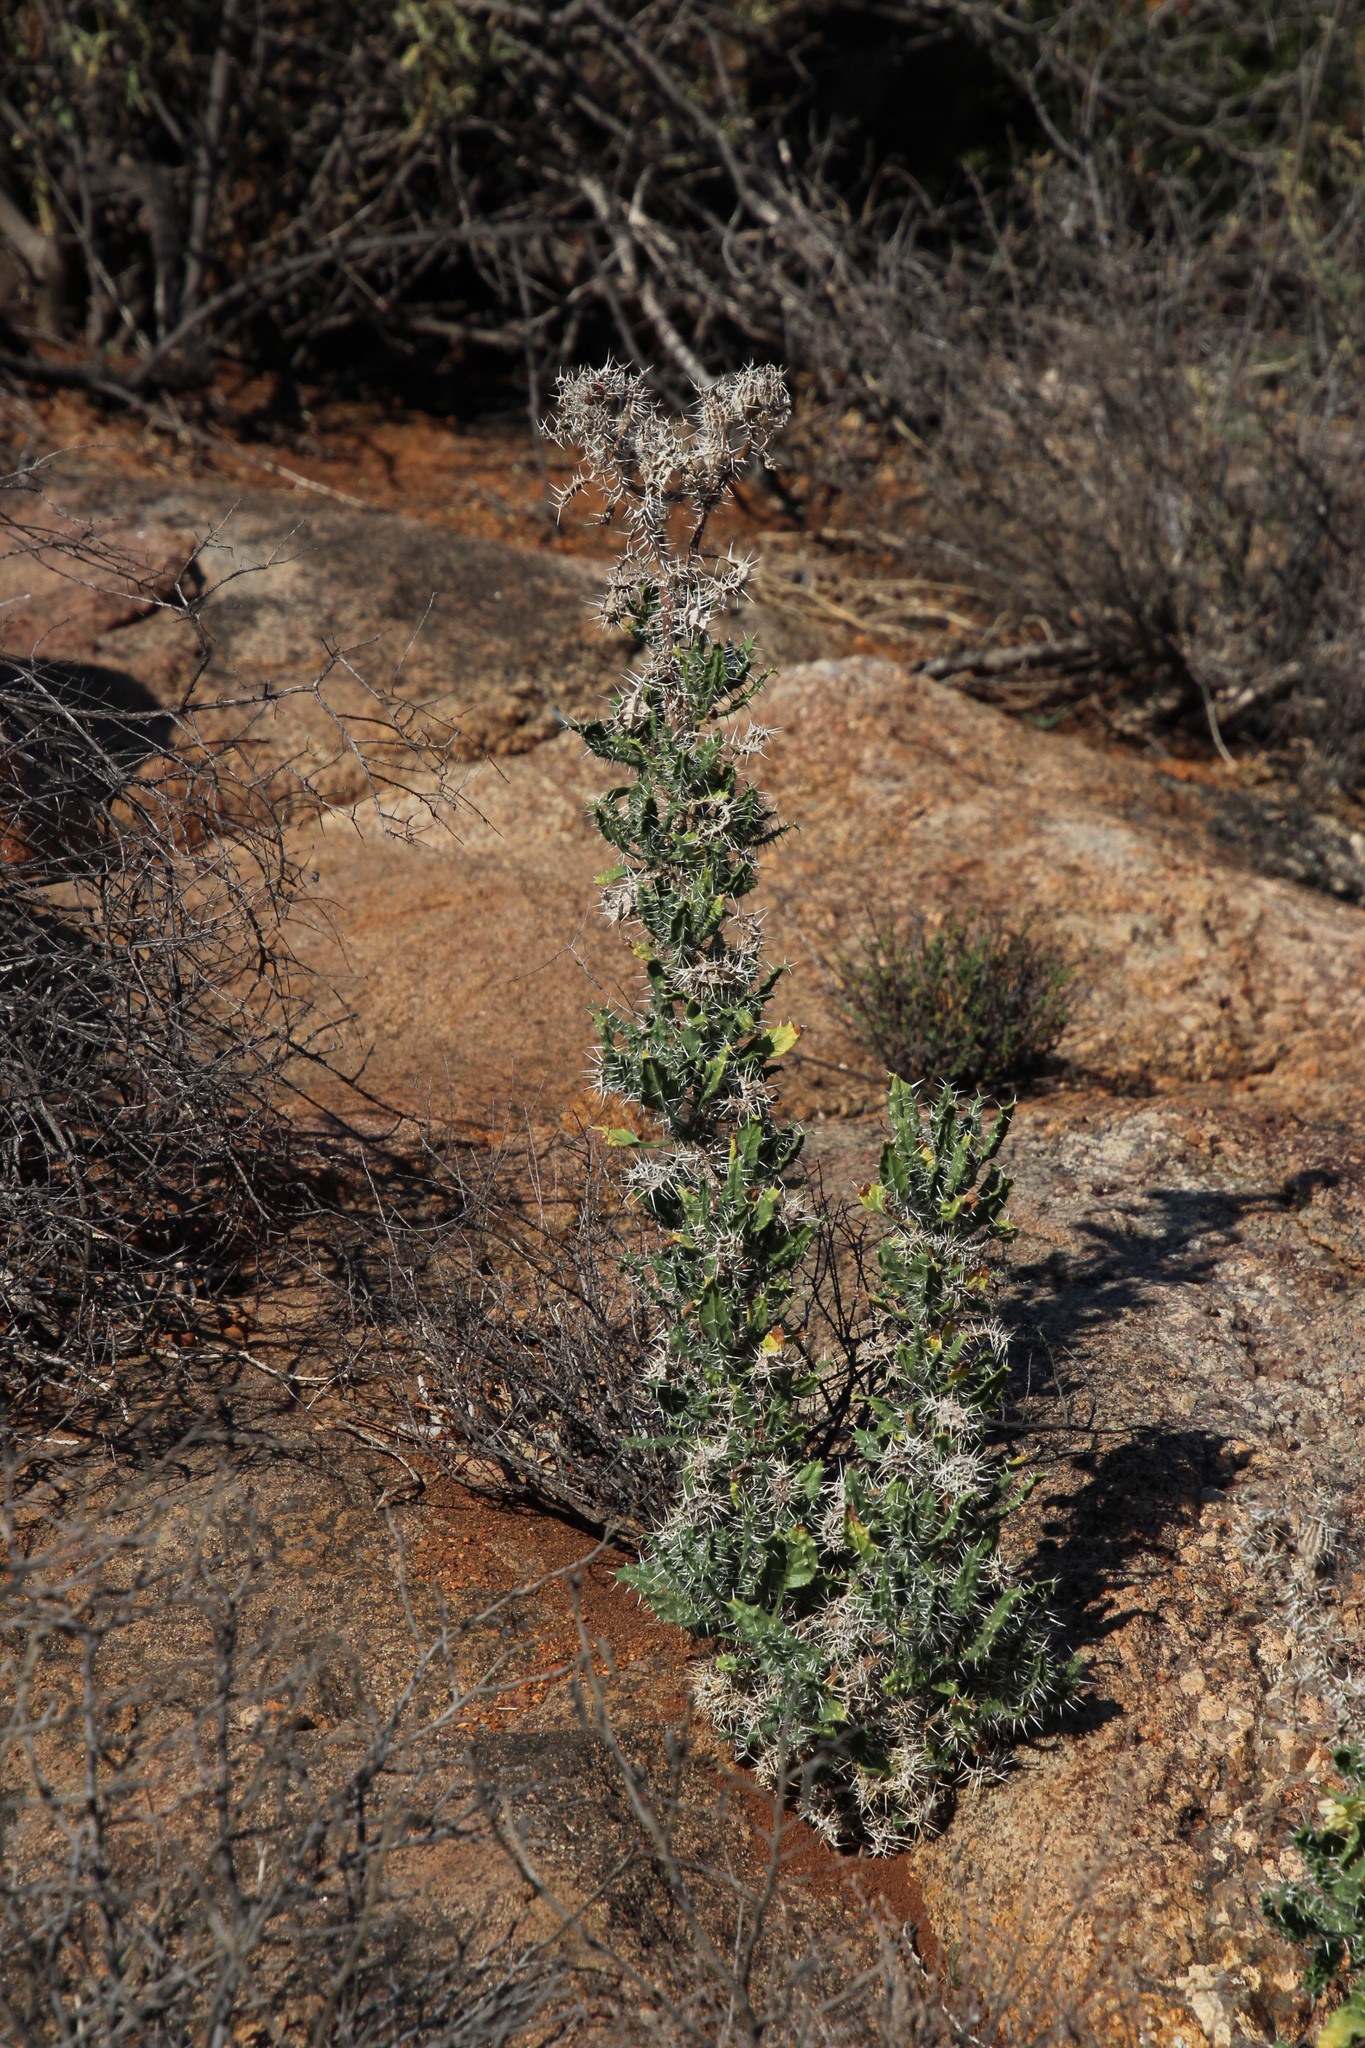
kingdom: Plantae
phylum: Tracheophyta
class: Magnoliopsida
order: Asterales
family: Asteraceae
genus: Berkheya
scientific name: Berkheya onobromoides
